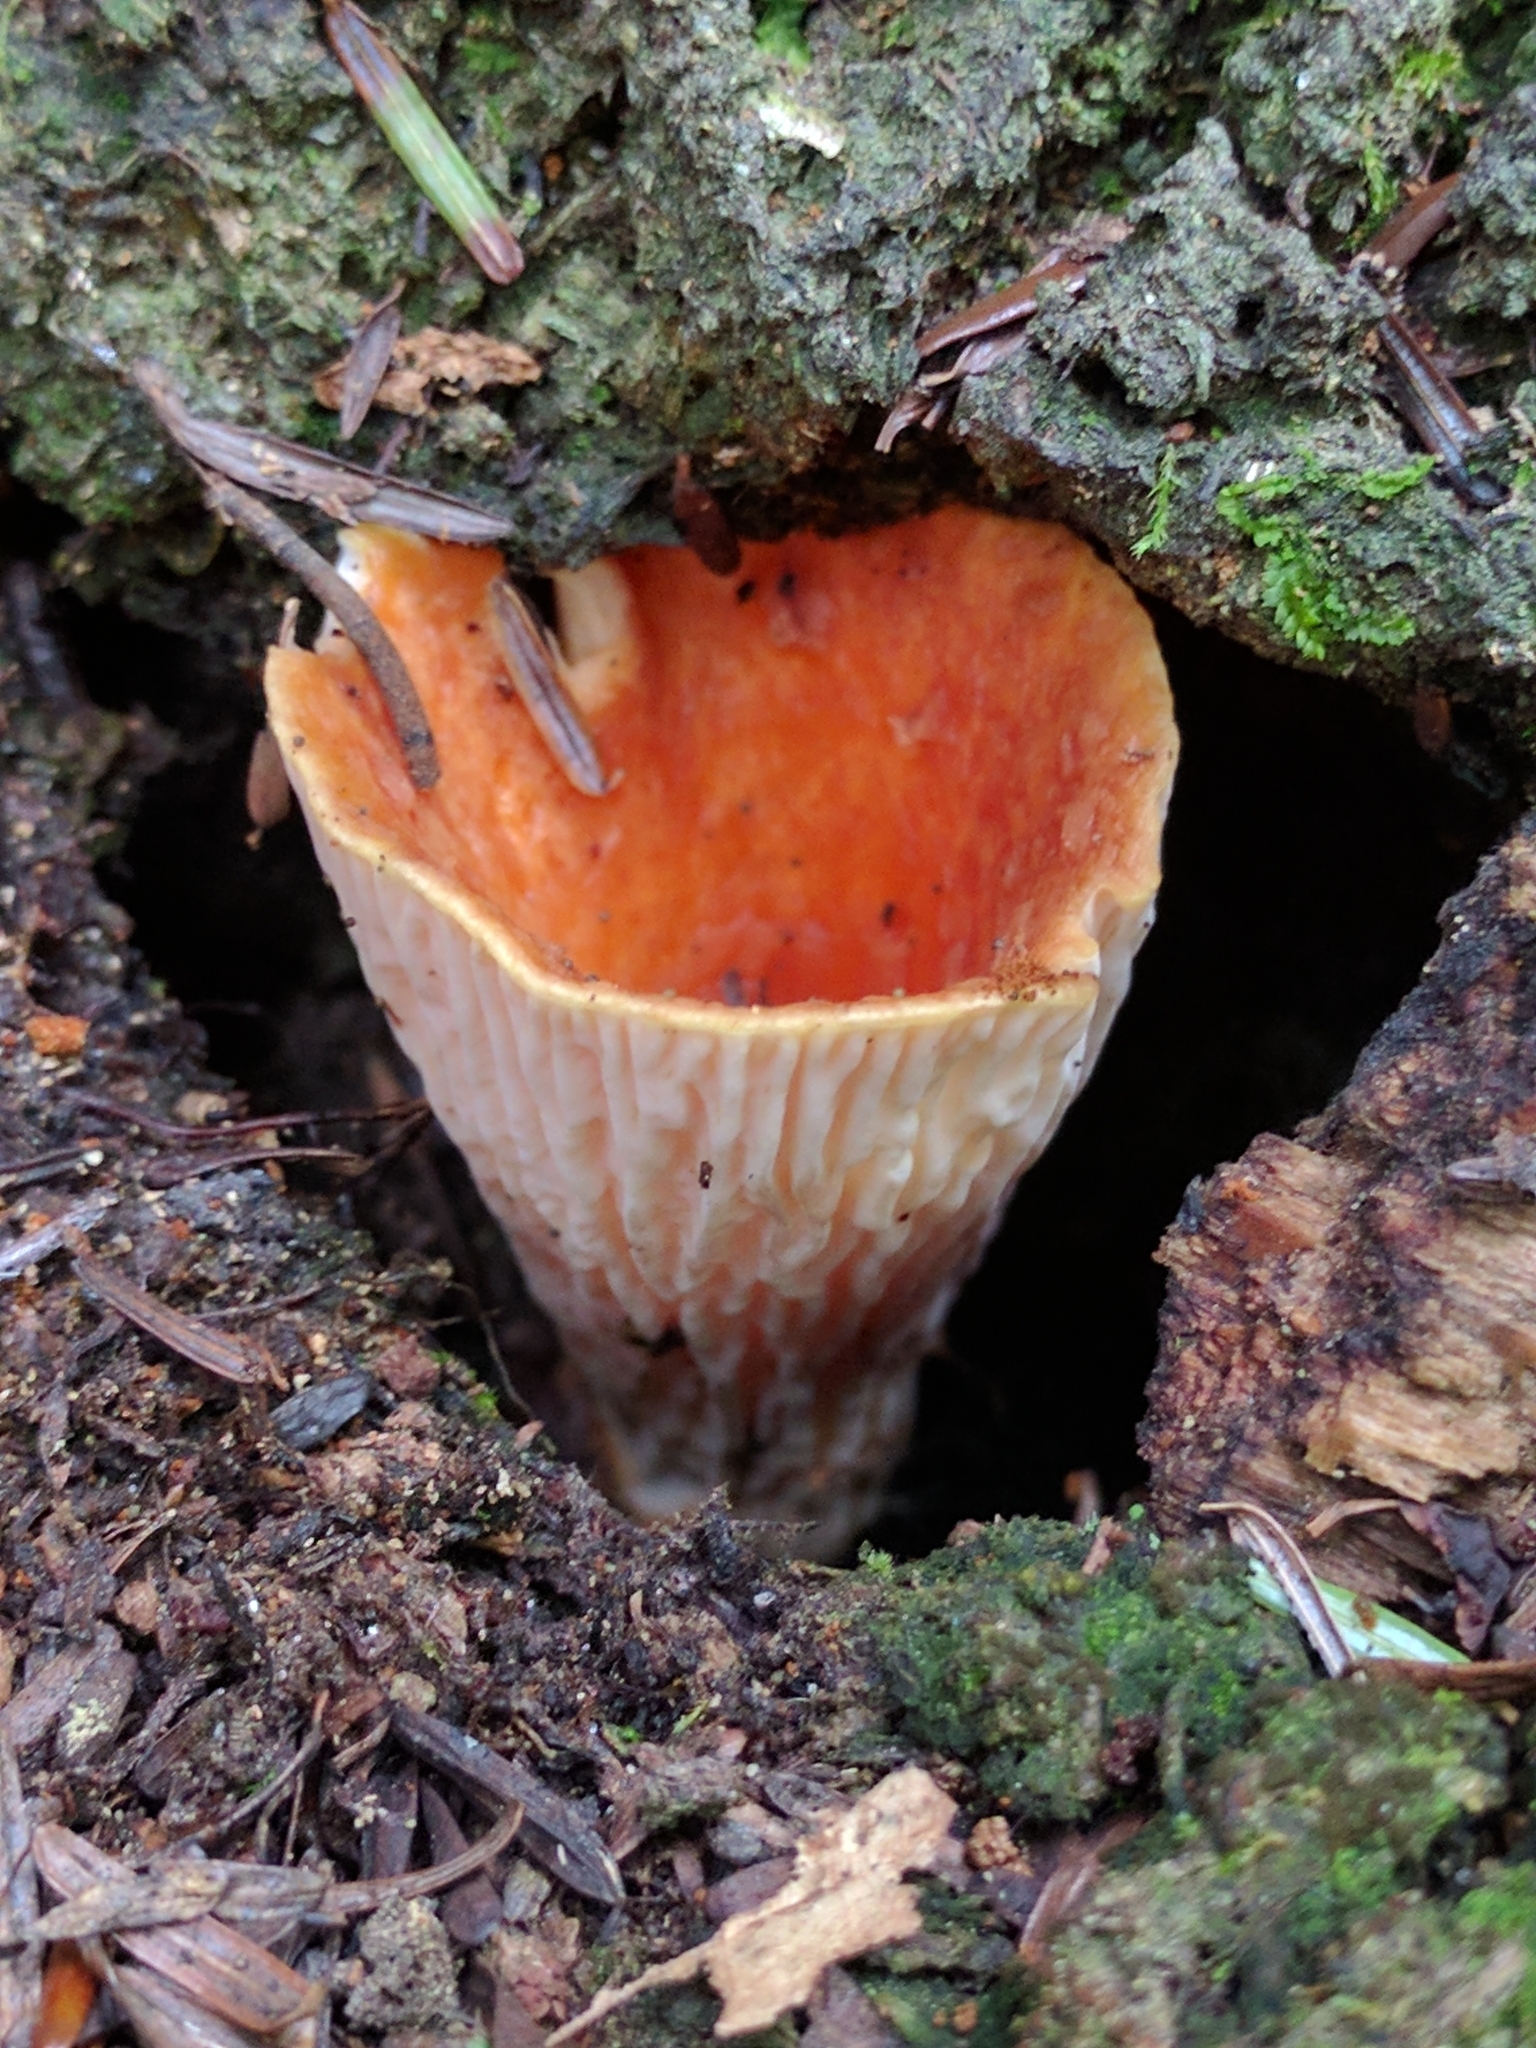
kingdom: Fungi
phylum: Basidiomycota
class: Agaricomycetes
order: Gomphales
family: Gomphaceae
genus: Turbinellus
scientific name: Turbinellus floccosus
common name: Scaly chanterelle
